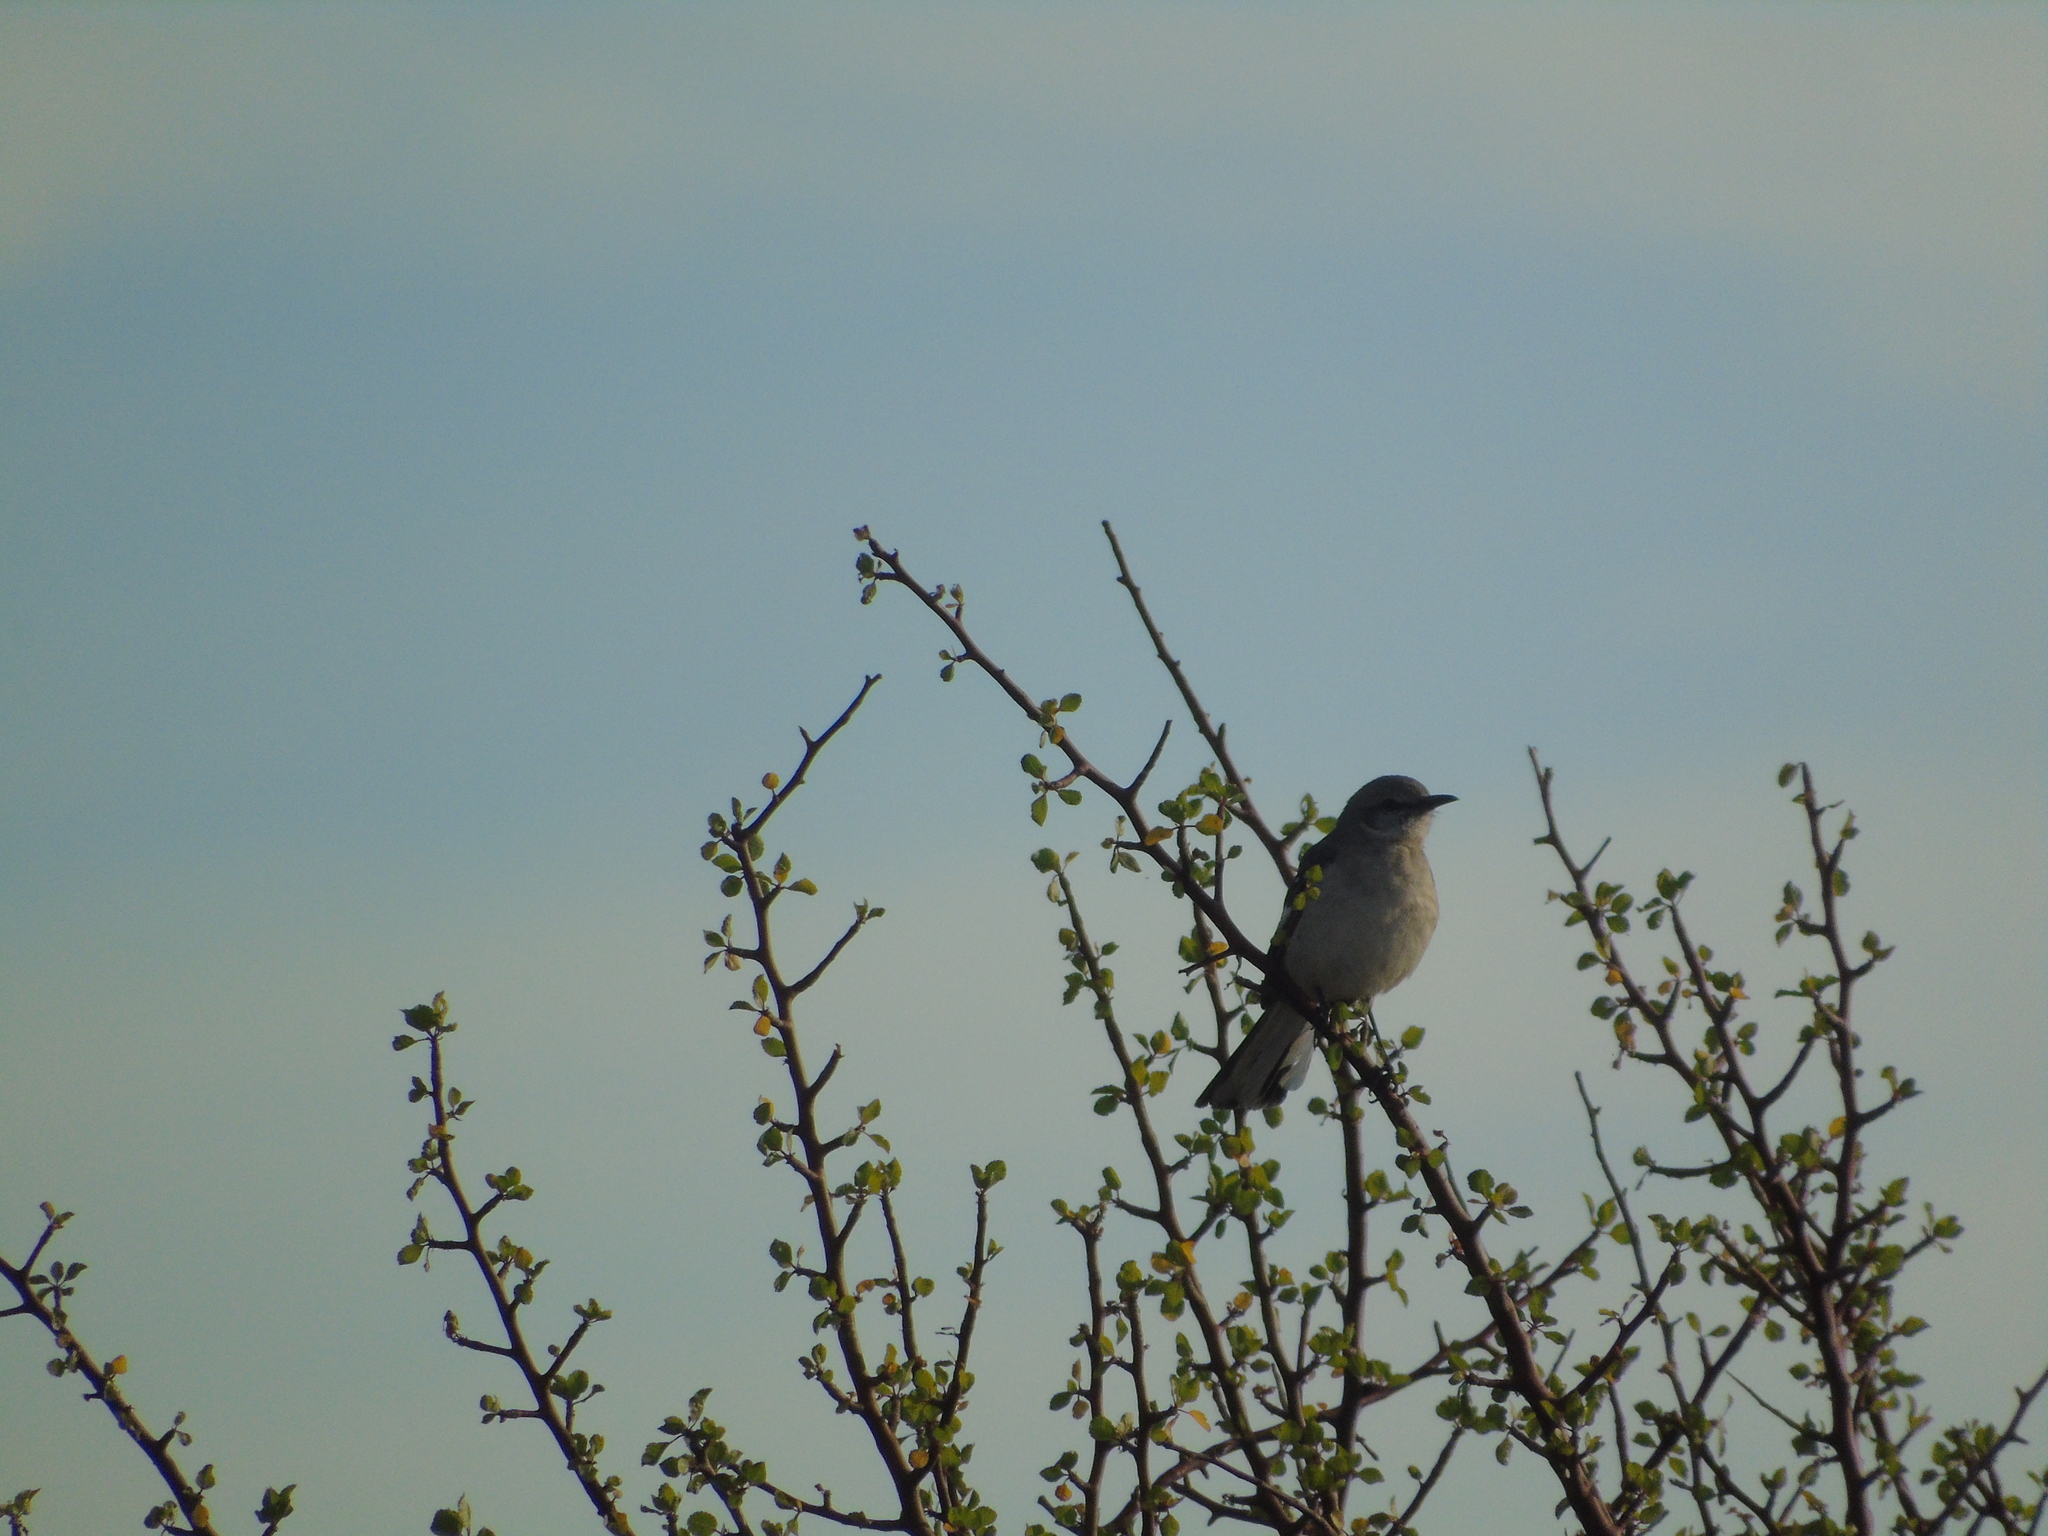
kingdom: Animalia
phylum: Chordata
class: Aves
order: Passeriformes
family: Mimidae
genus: Mimus
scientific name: Mimus polyglottos
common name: Northern mockingbird
